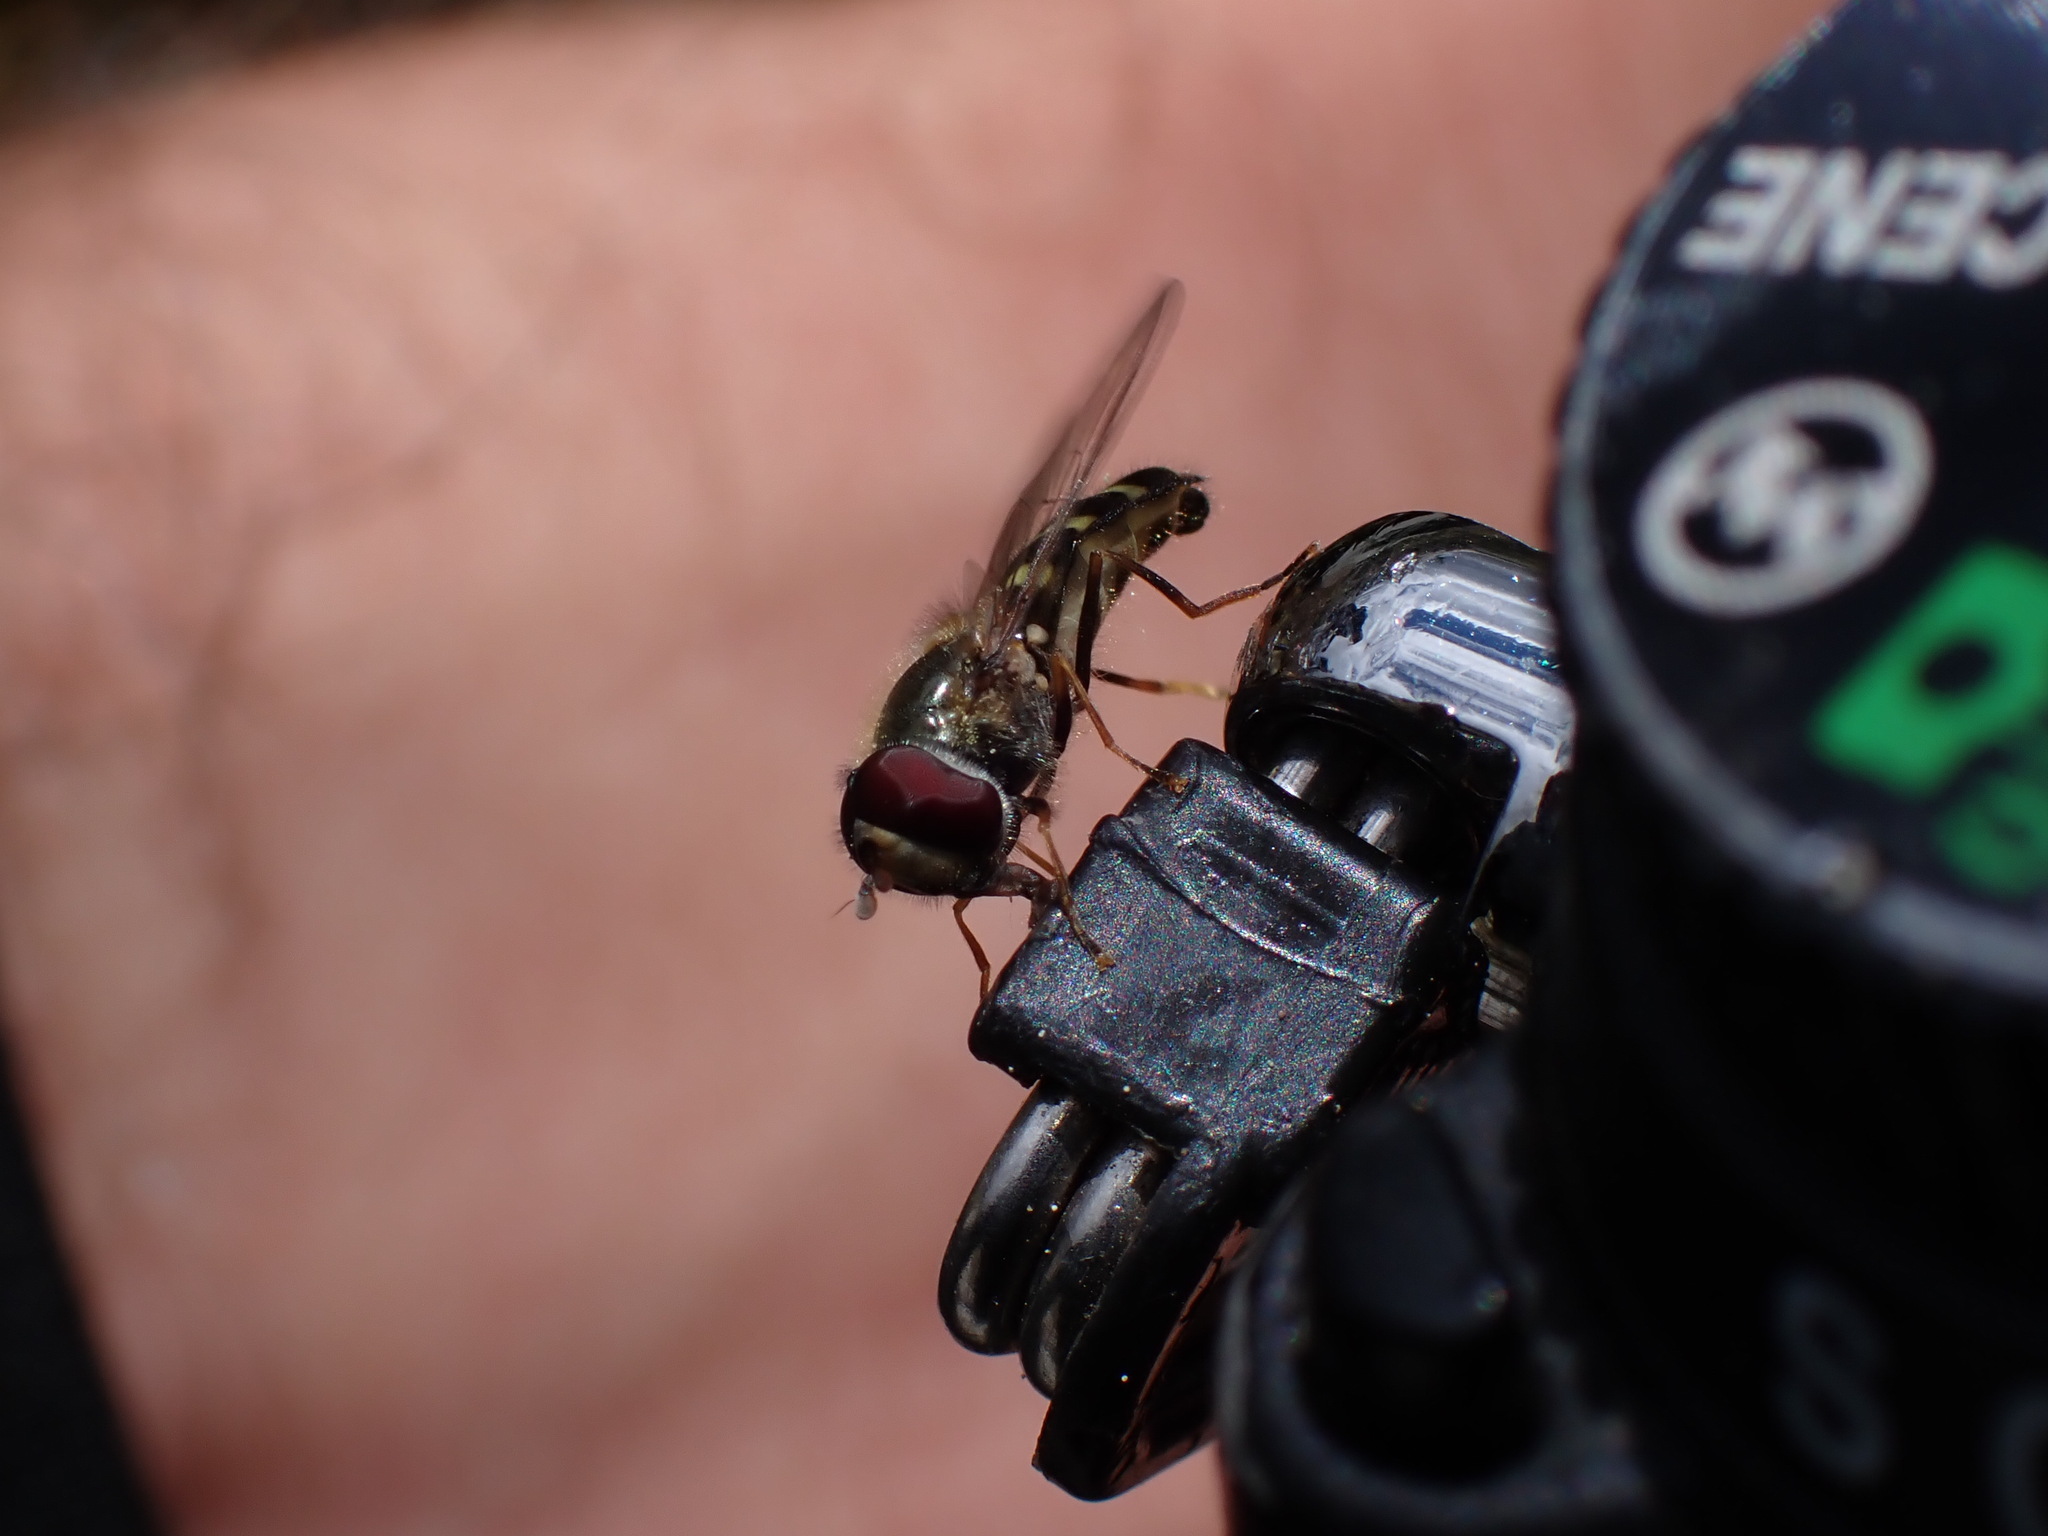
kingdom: Animalia
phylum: Arthropoda
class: Insecta
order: Diptera
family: Syrphidae
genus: Lapposyrphus
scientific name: Lapposyrphus lapponicus
